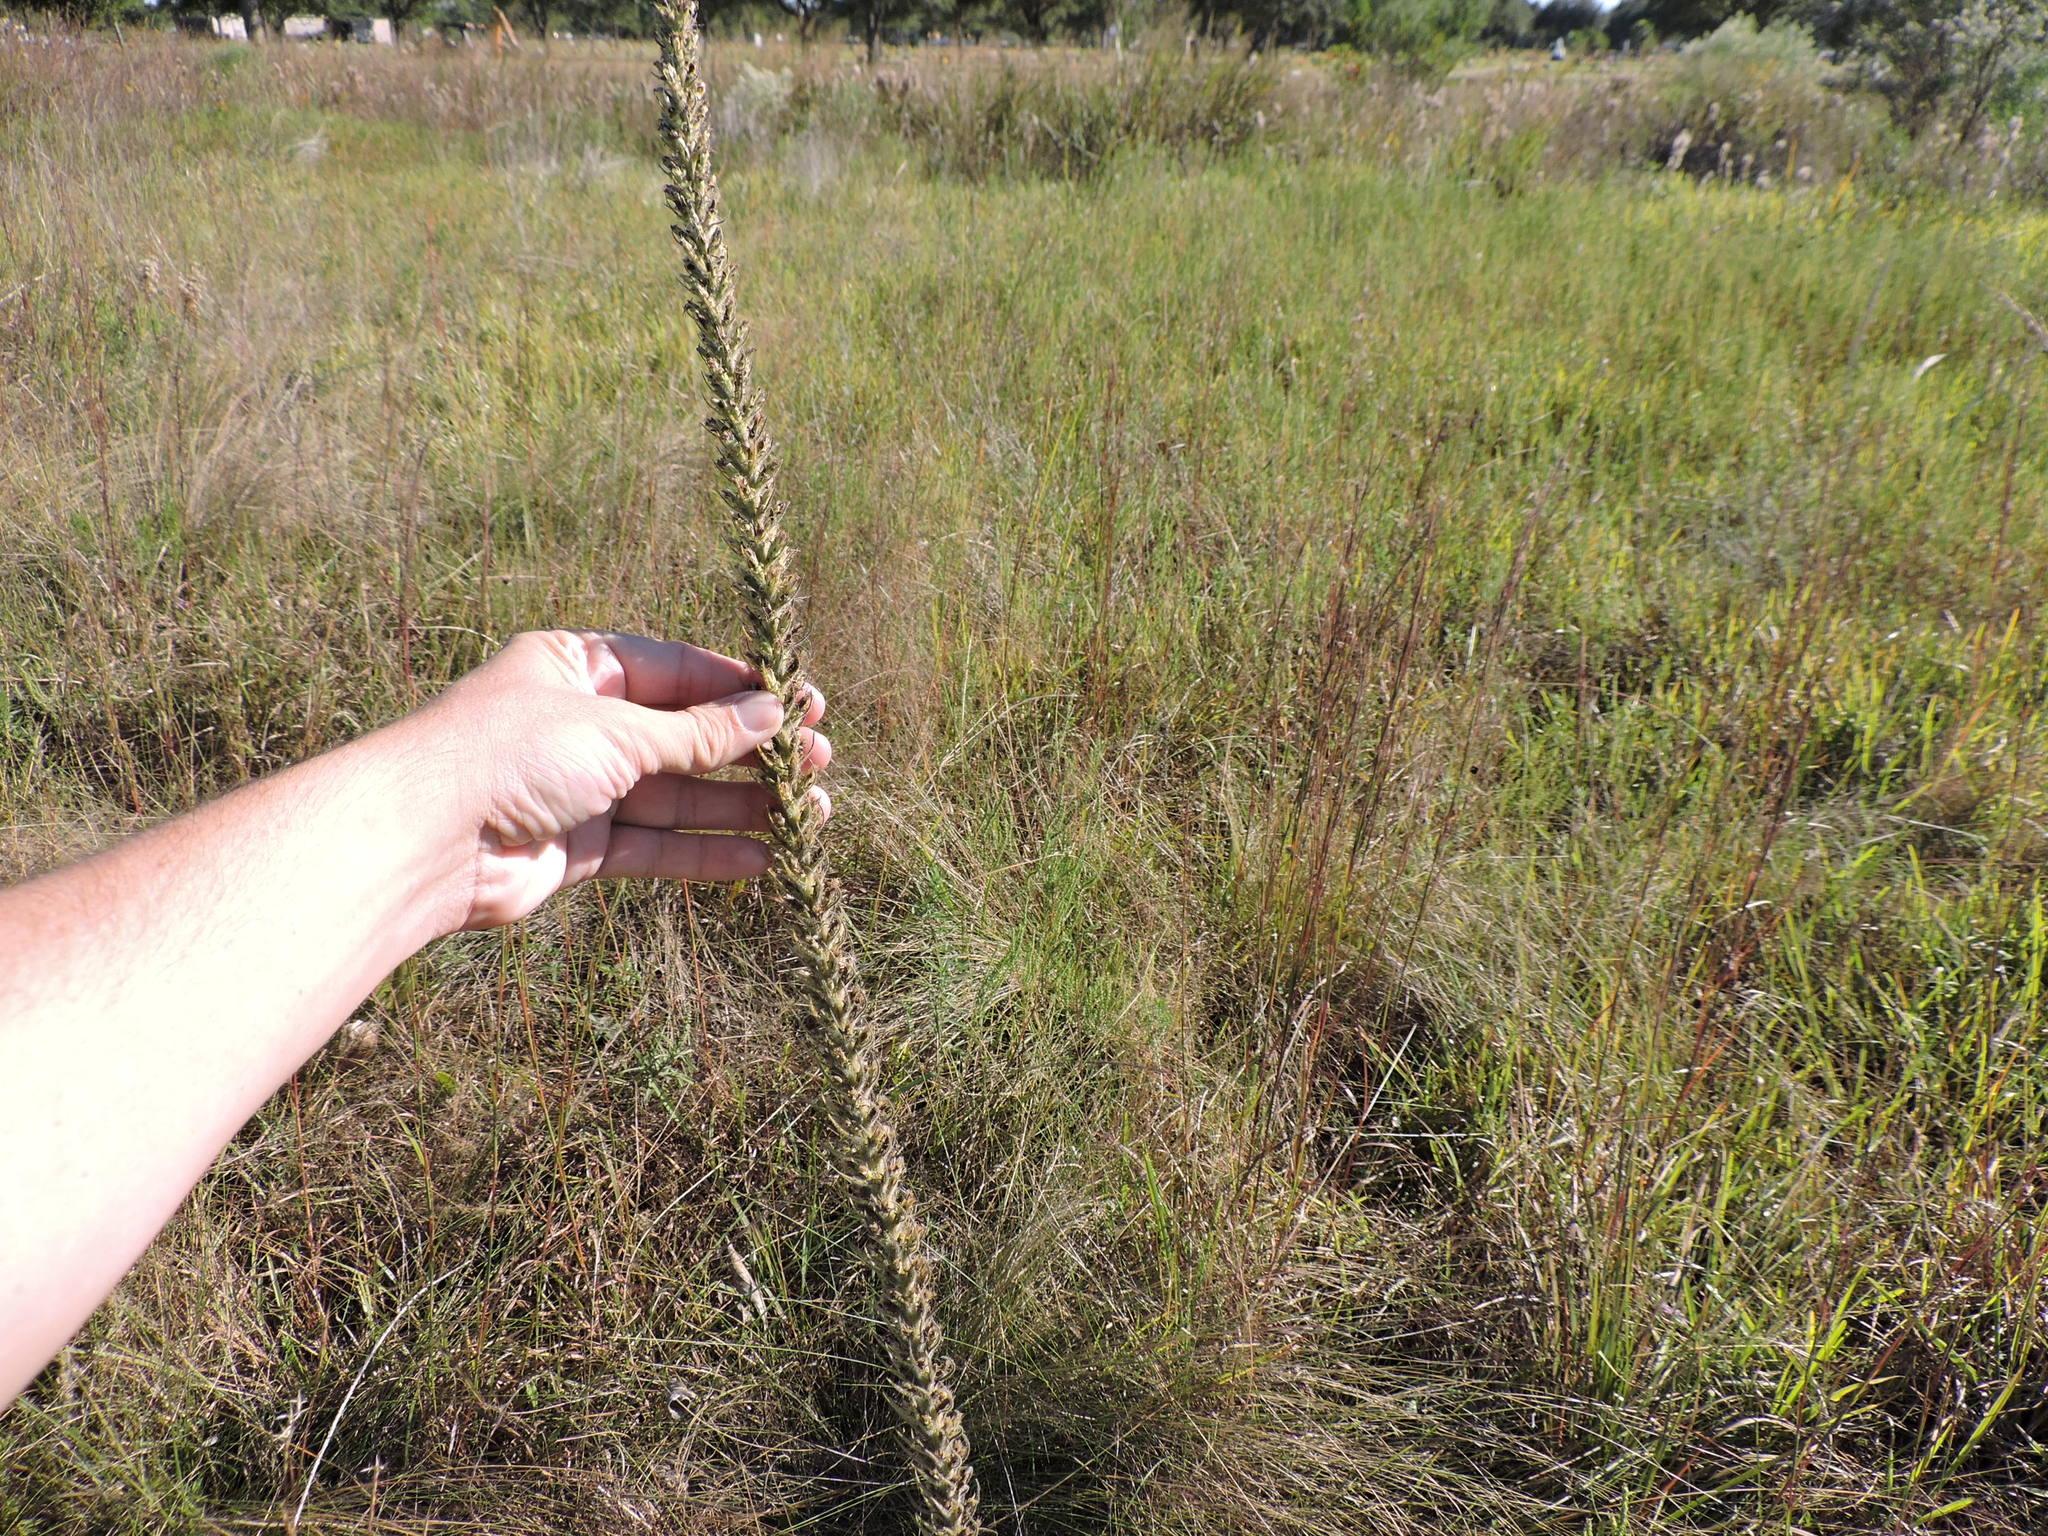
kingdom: Plantae
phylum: Tracheophyta
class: Magnoliopsida
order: Asterales
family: Asteraceae
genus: Liatris
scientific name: Liatris pycnostachya
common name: Cattail gayfeather
